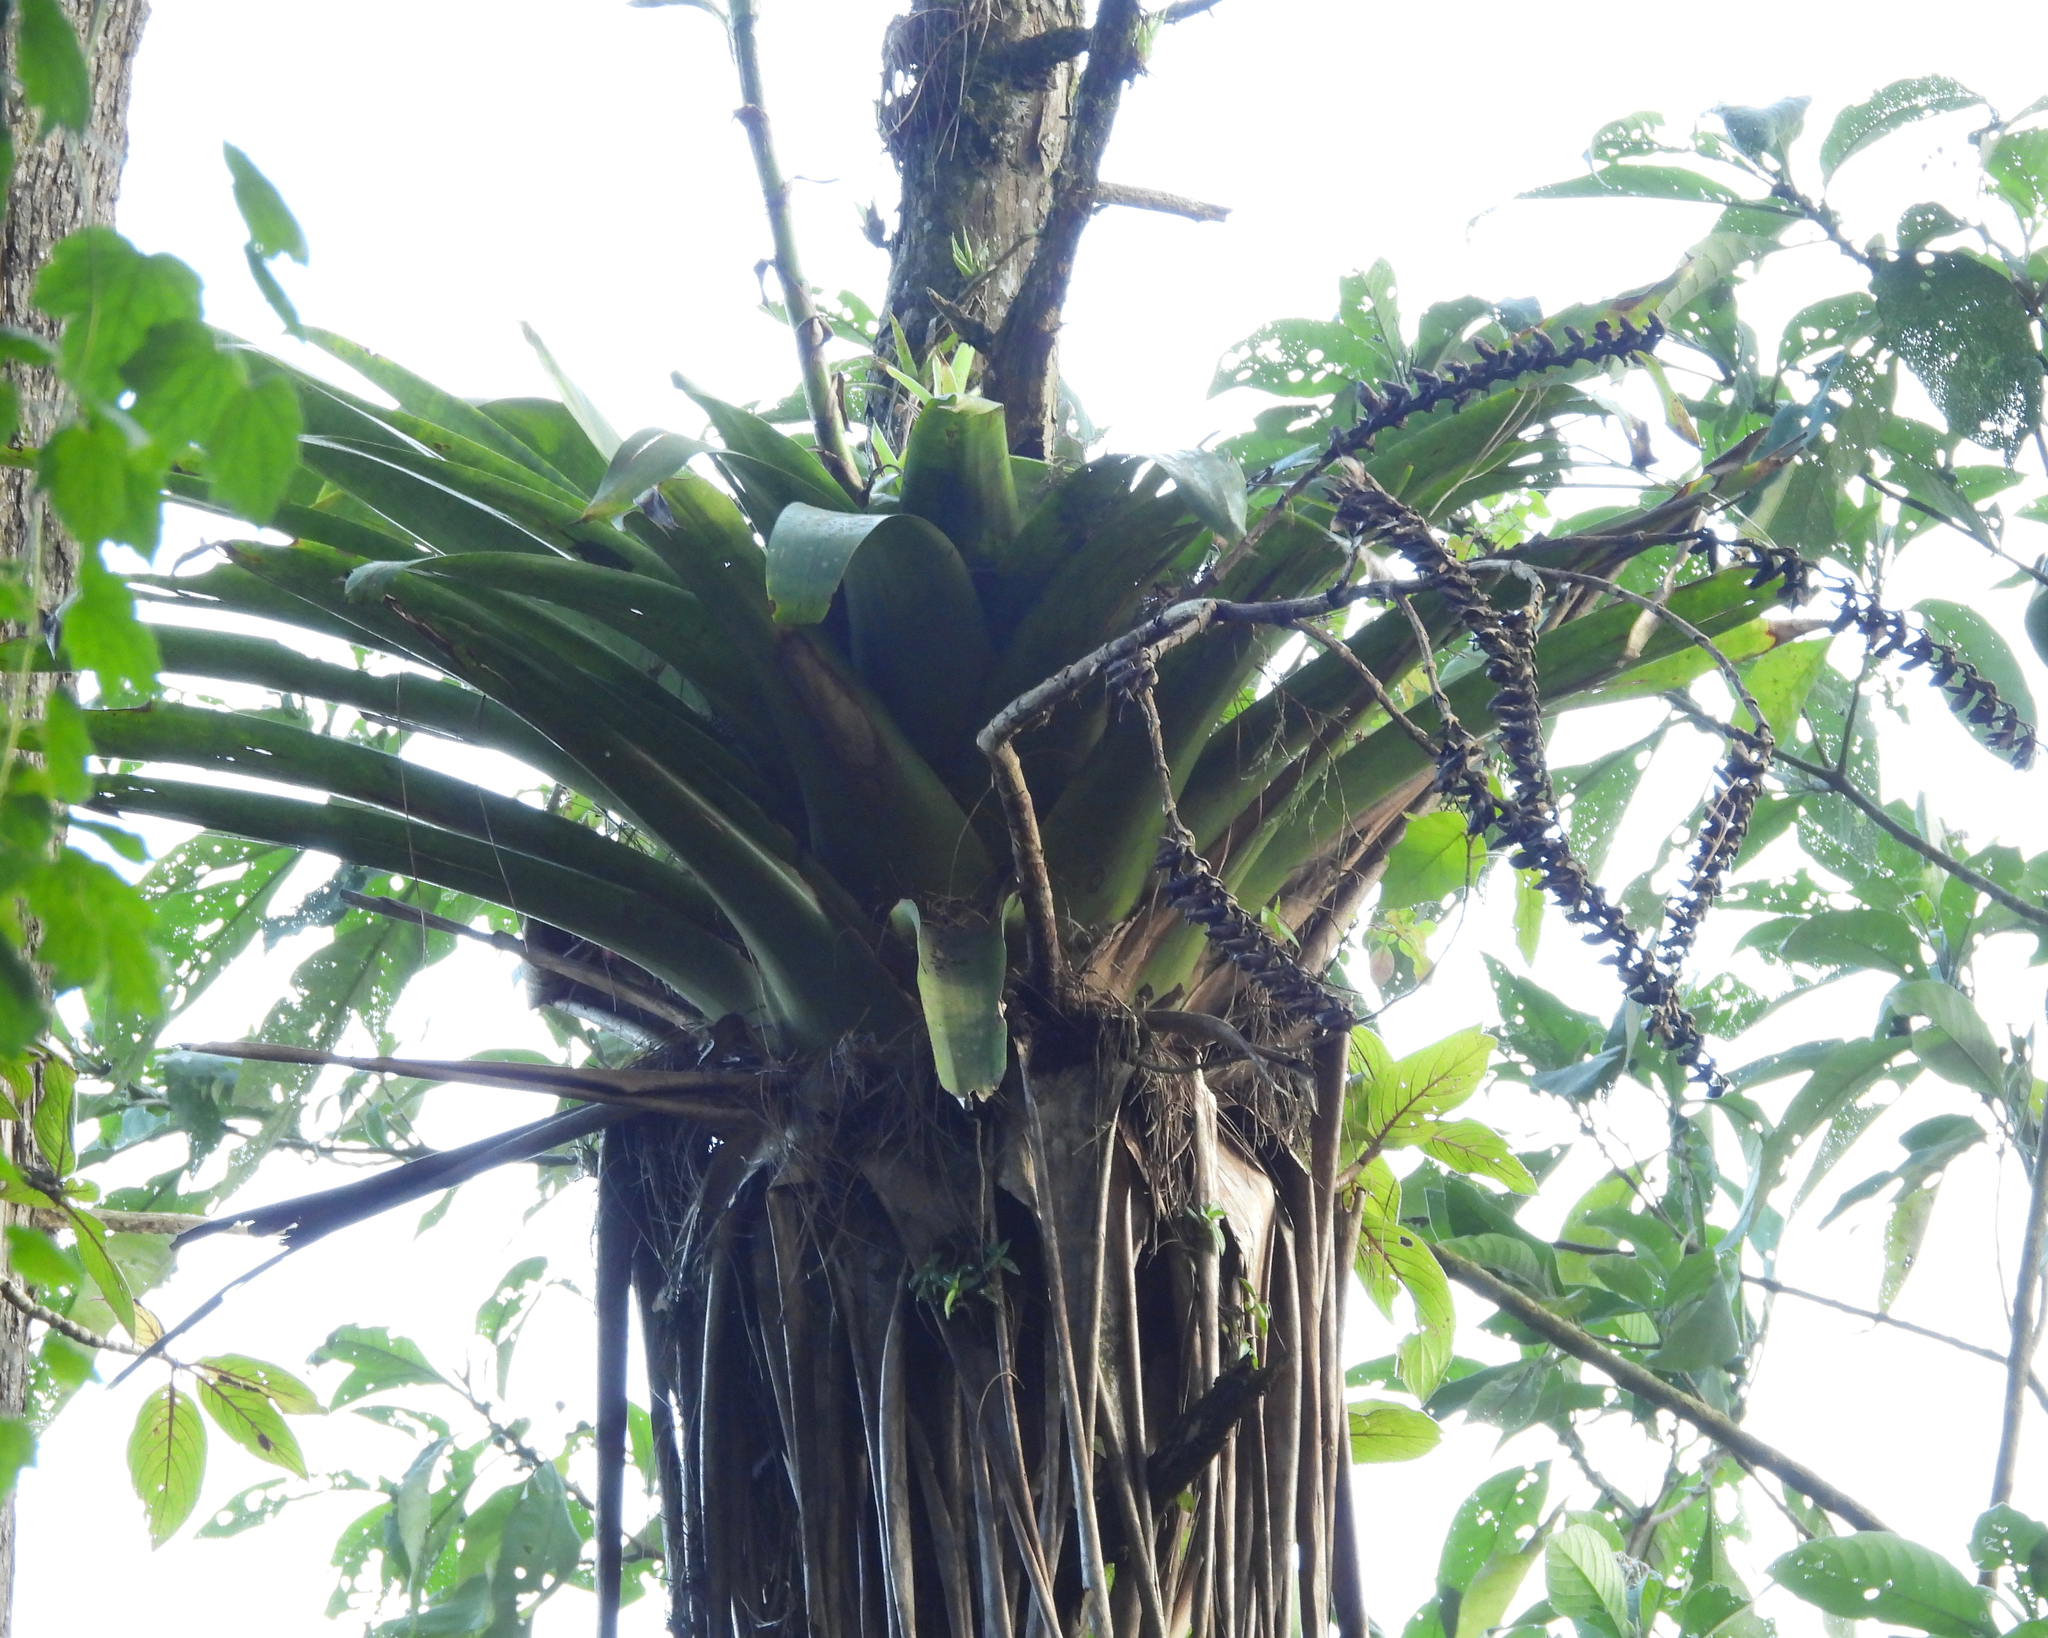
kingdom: Plantae
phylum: Tracheophyta
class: Liliopsida
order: Poales
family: Bromeliaceae
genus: Werauhia
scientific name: Werauhia werckleana
